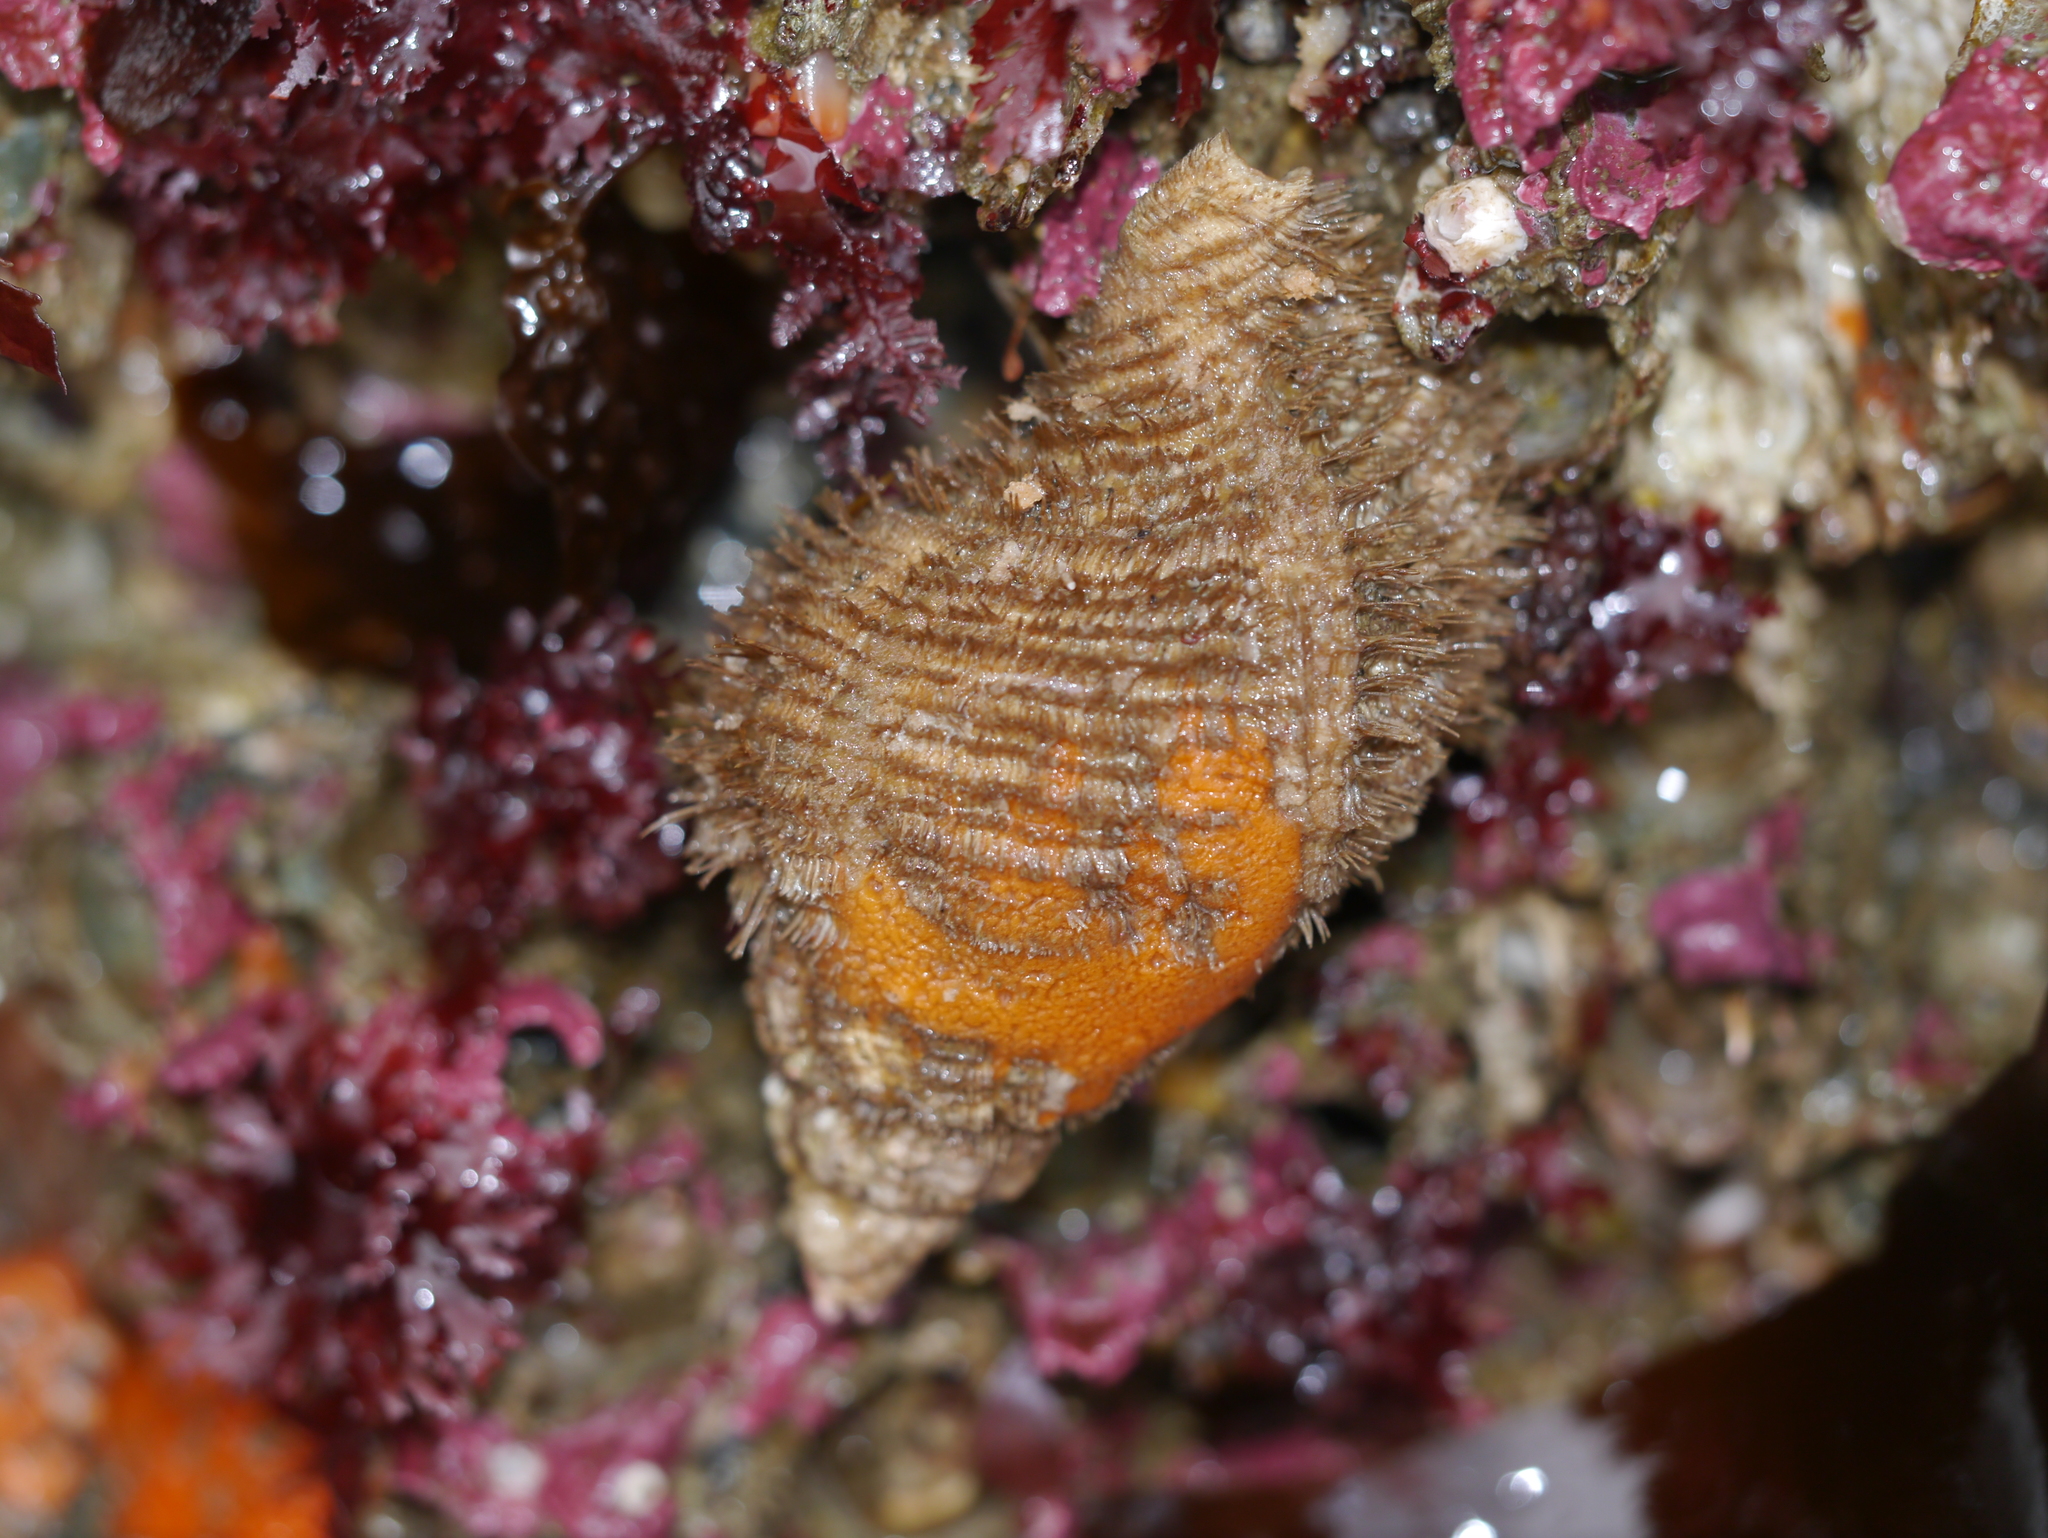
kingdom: Animalia
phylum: Mollusca
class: Gastropoda
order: Littorinimorpha
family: Cymatiidae
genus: Fusitriton
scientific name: Fusitriton oregonensis
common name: Oregon hairy triton
